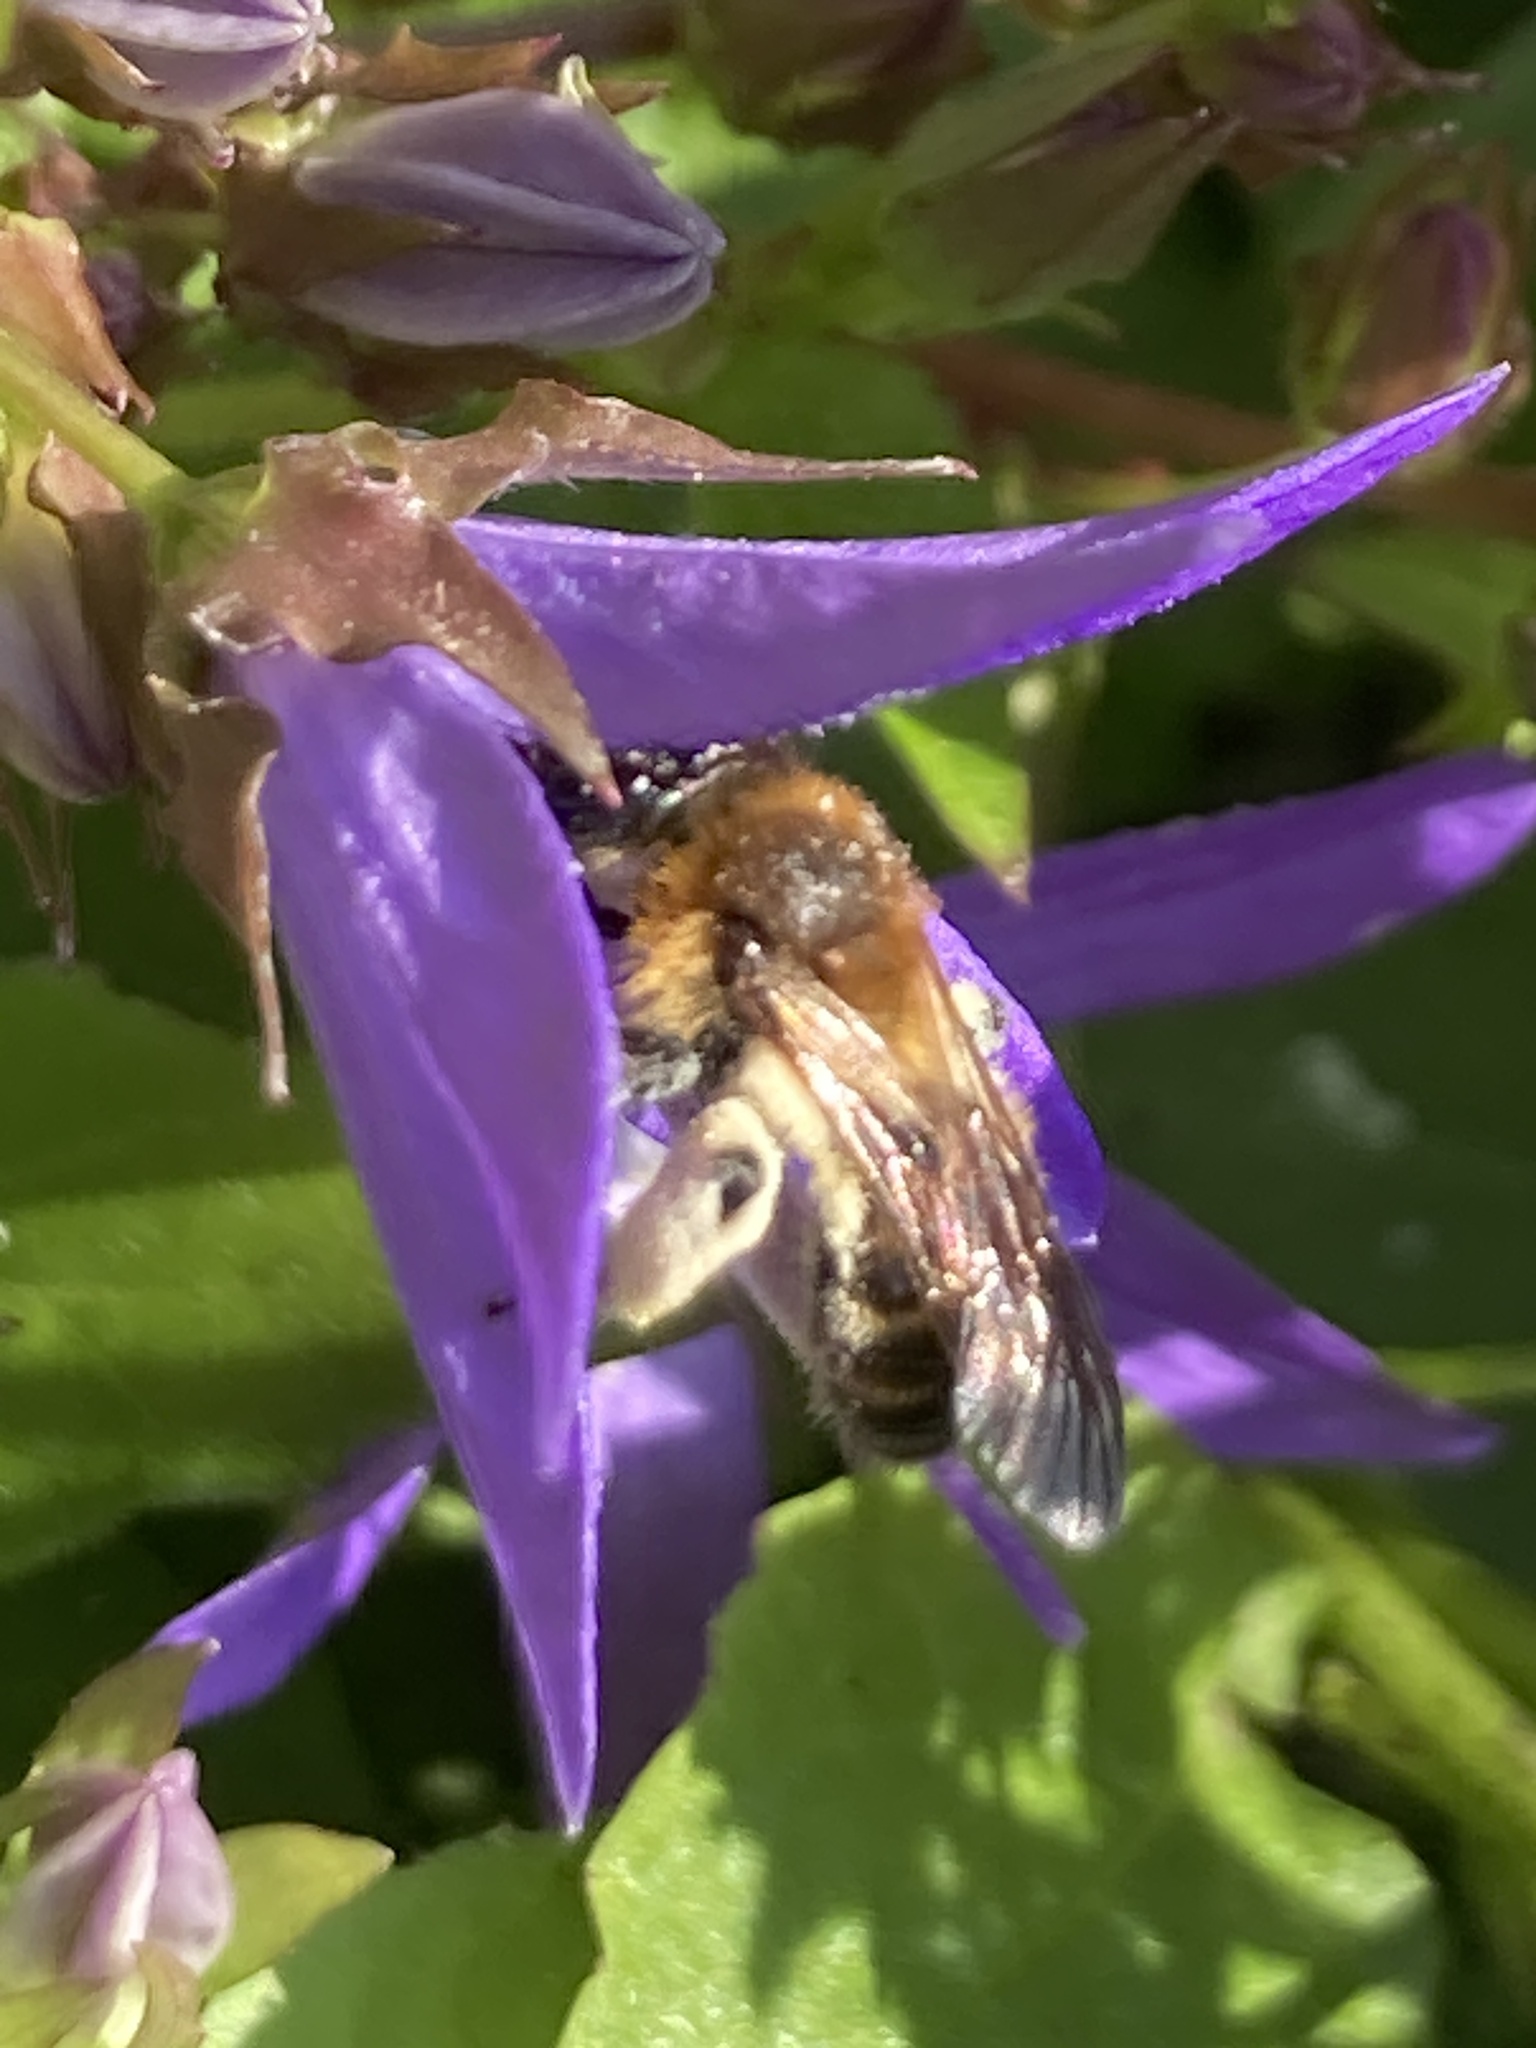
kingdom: Animalia
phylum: Arthropoda
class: Insecta
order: Hymenoptera
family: Andrenidae
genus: Andrena
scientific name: Andrena bicolor
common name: Gwynne's mining bee
